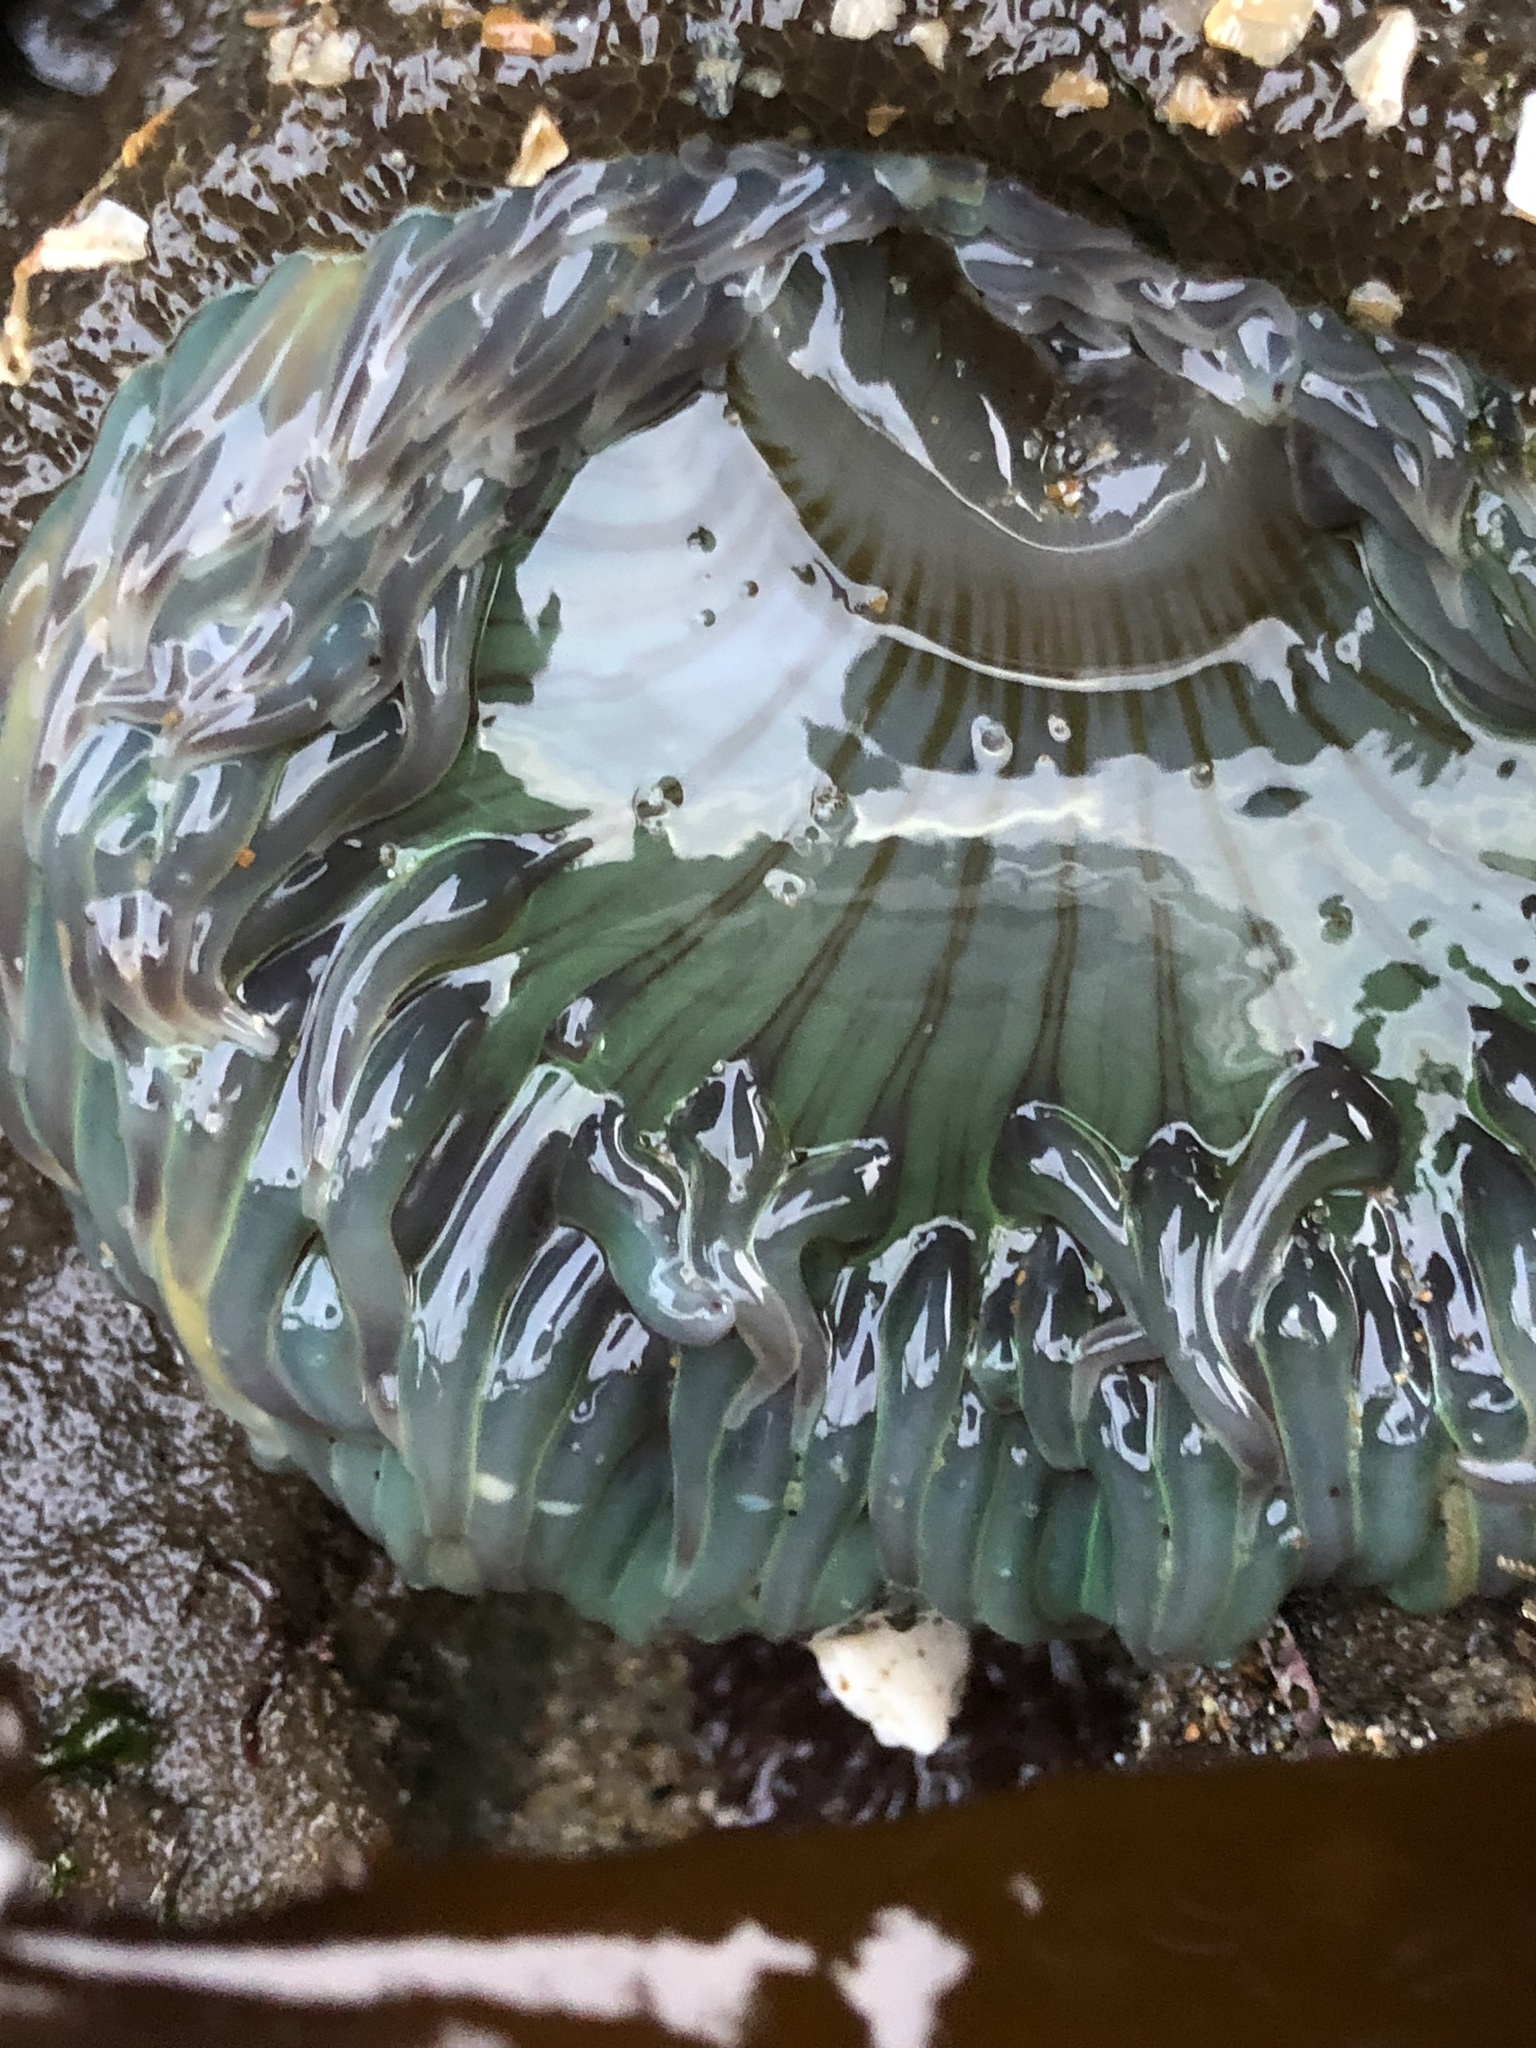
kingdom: Animalia
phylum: Cnidaria
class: Anthozoa
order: Actiniaria
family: Actiniidae
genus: Anthopleura
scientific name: Anthopleura sola
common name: Sun anemone
